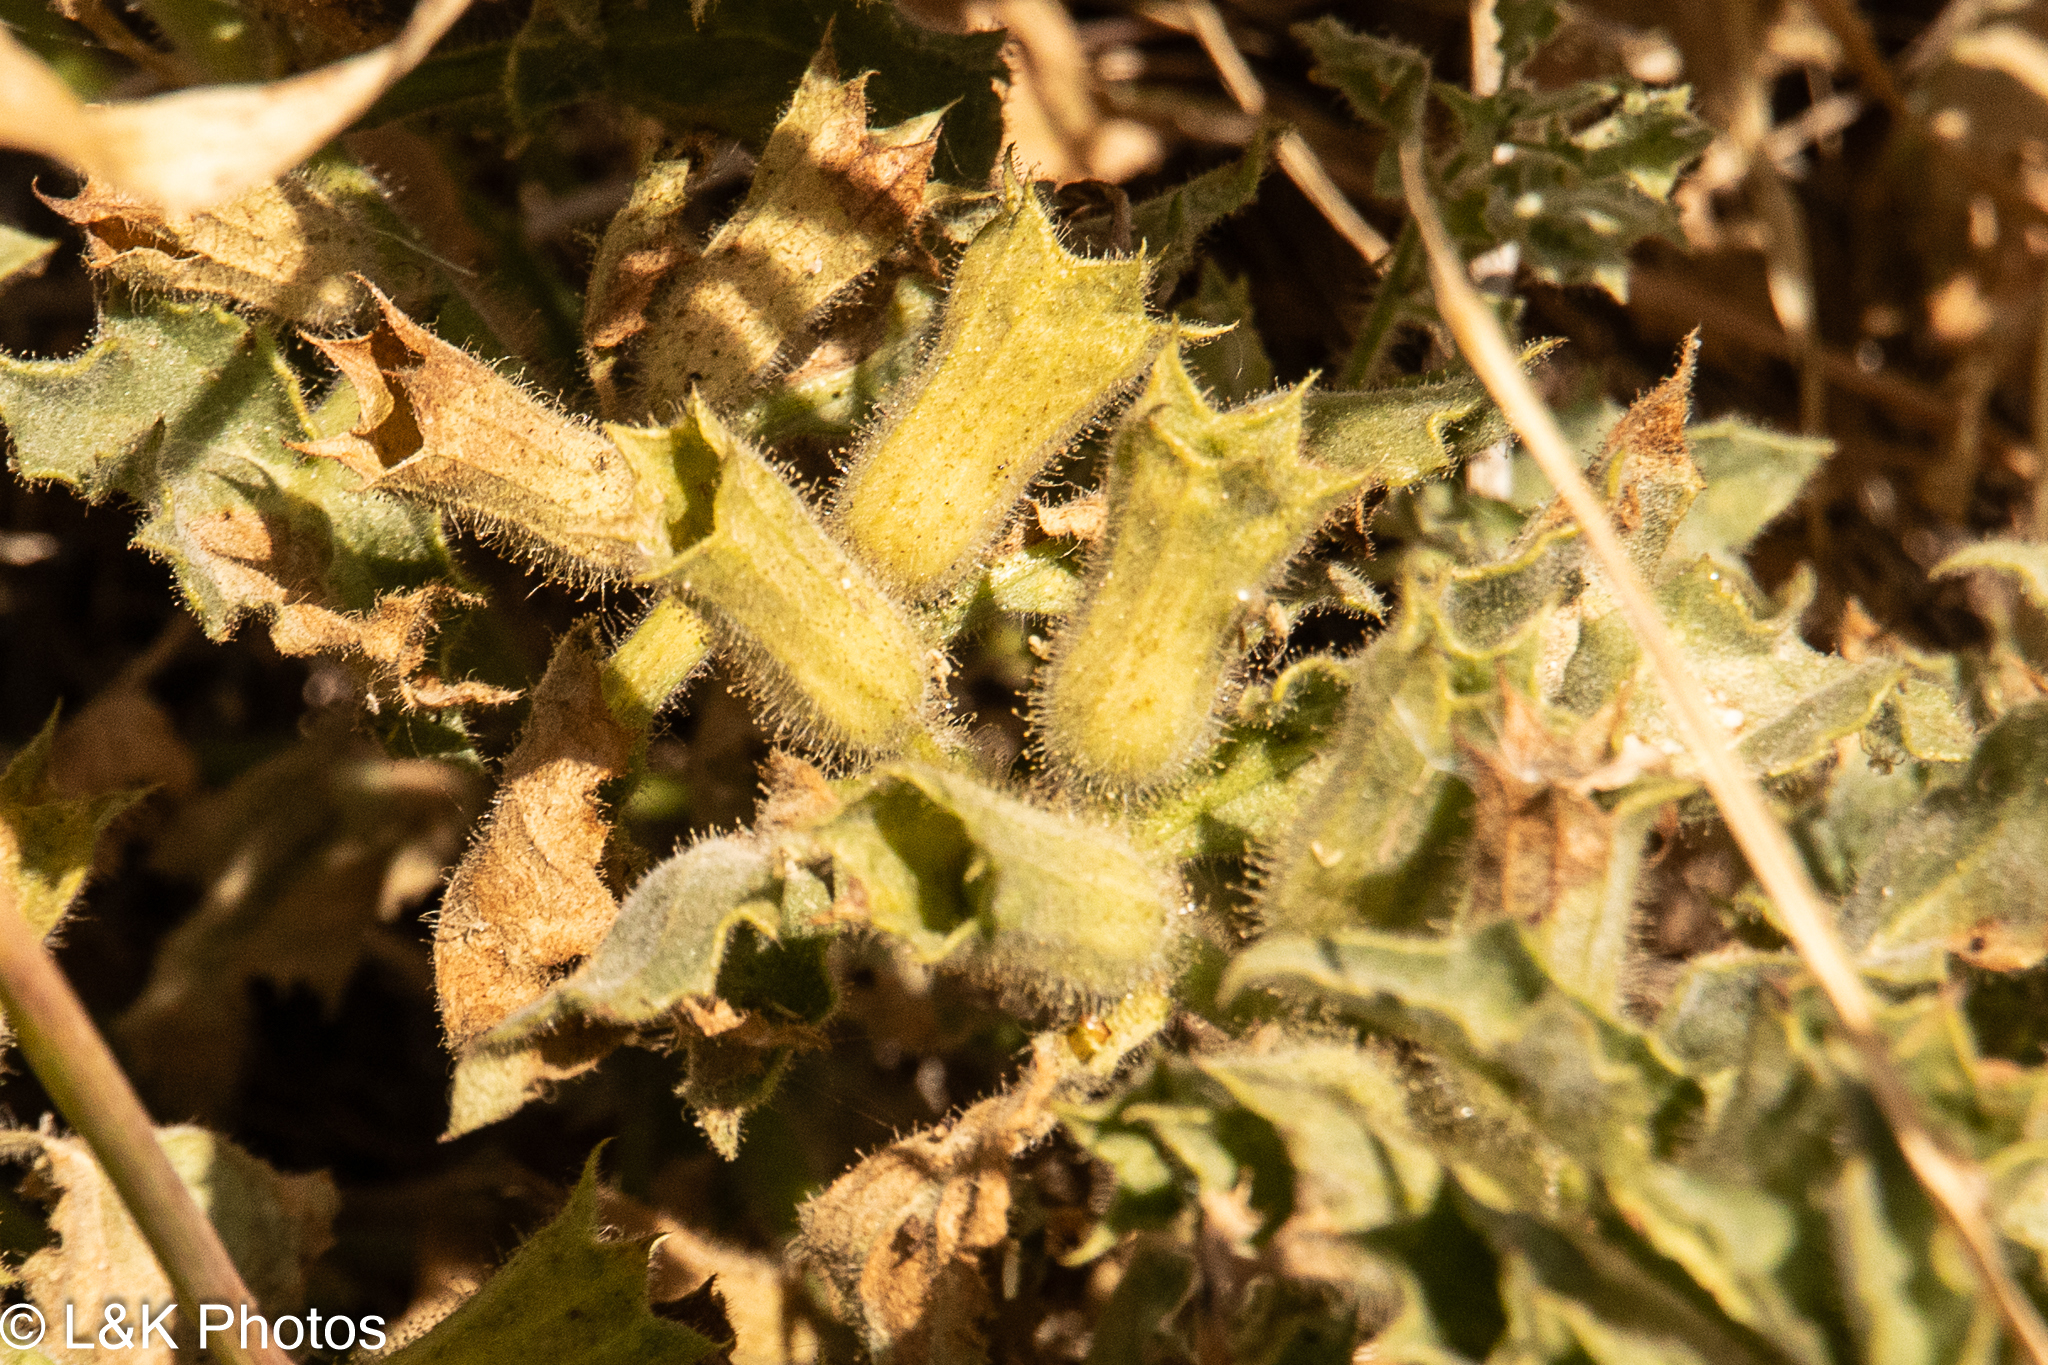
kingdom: Plantae
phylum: Tracheophyta
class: Magnoliopsida
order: Solanales
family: Solanaceae
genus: Hyoscyamus
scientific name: Hyoscyamus aureus
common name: Golden henbane
